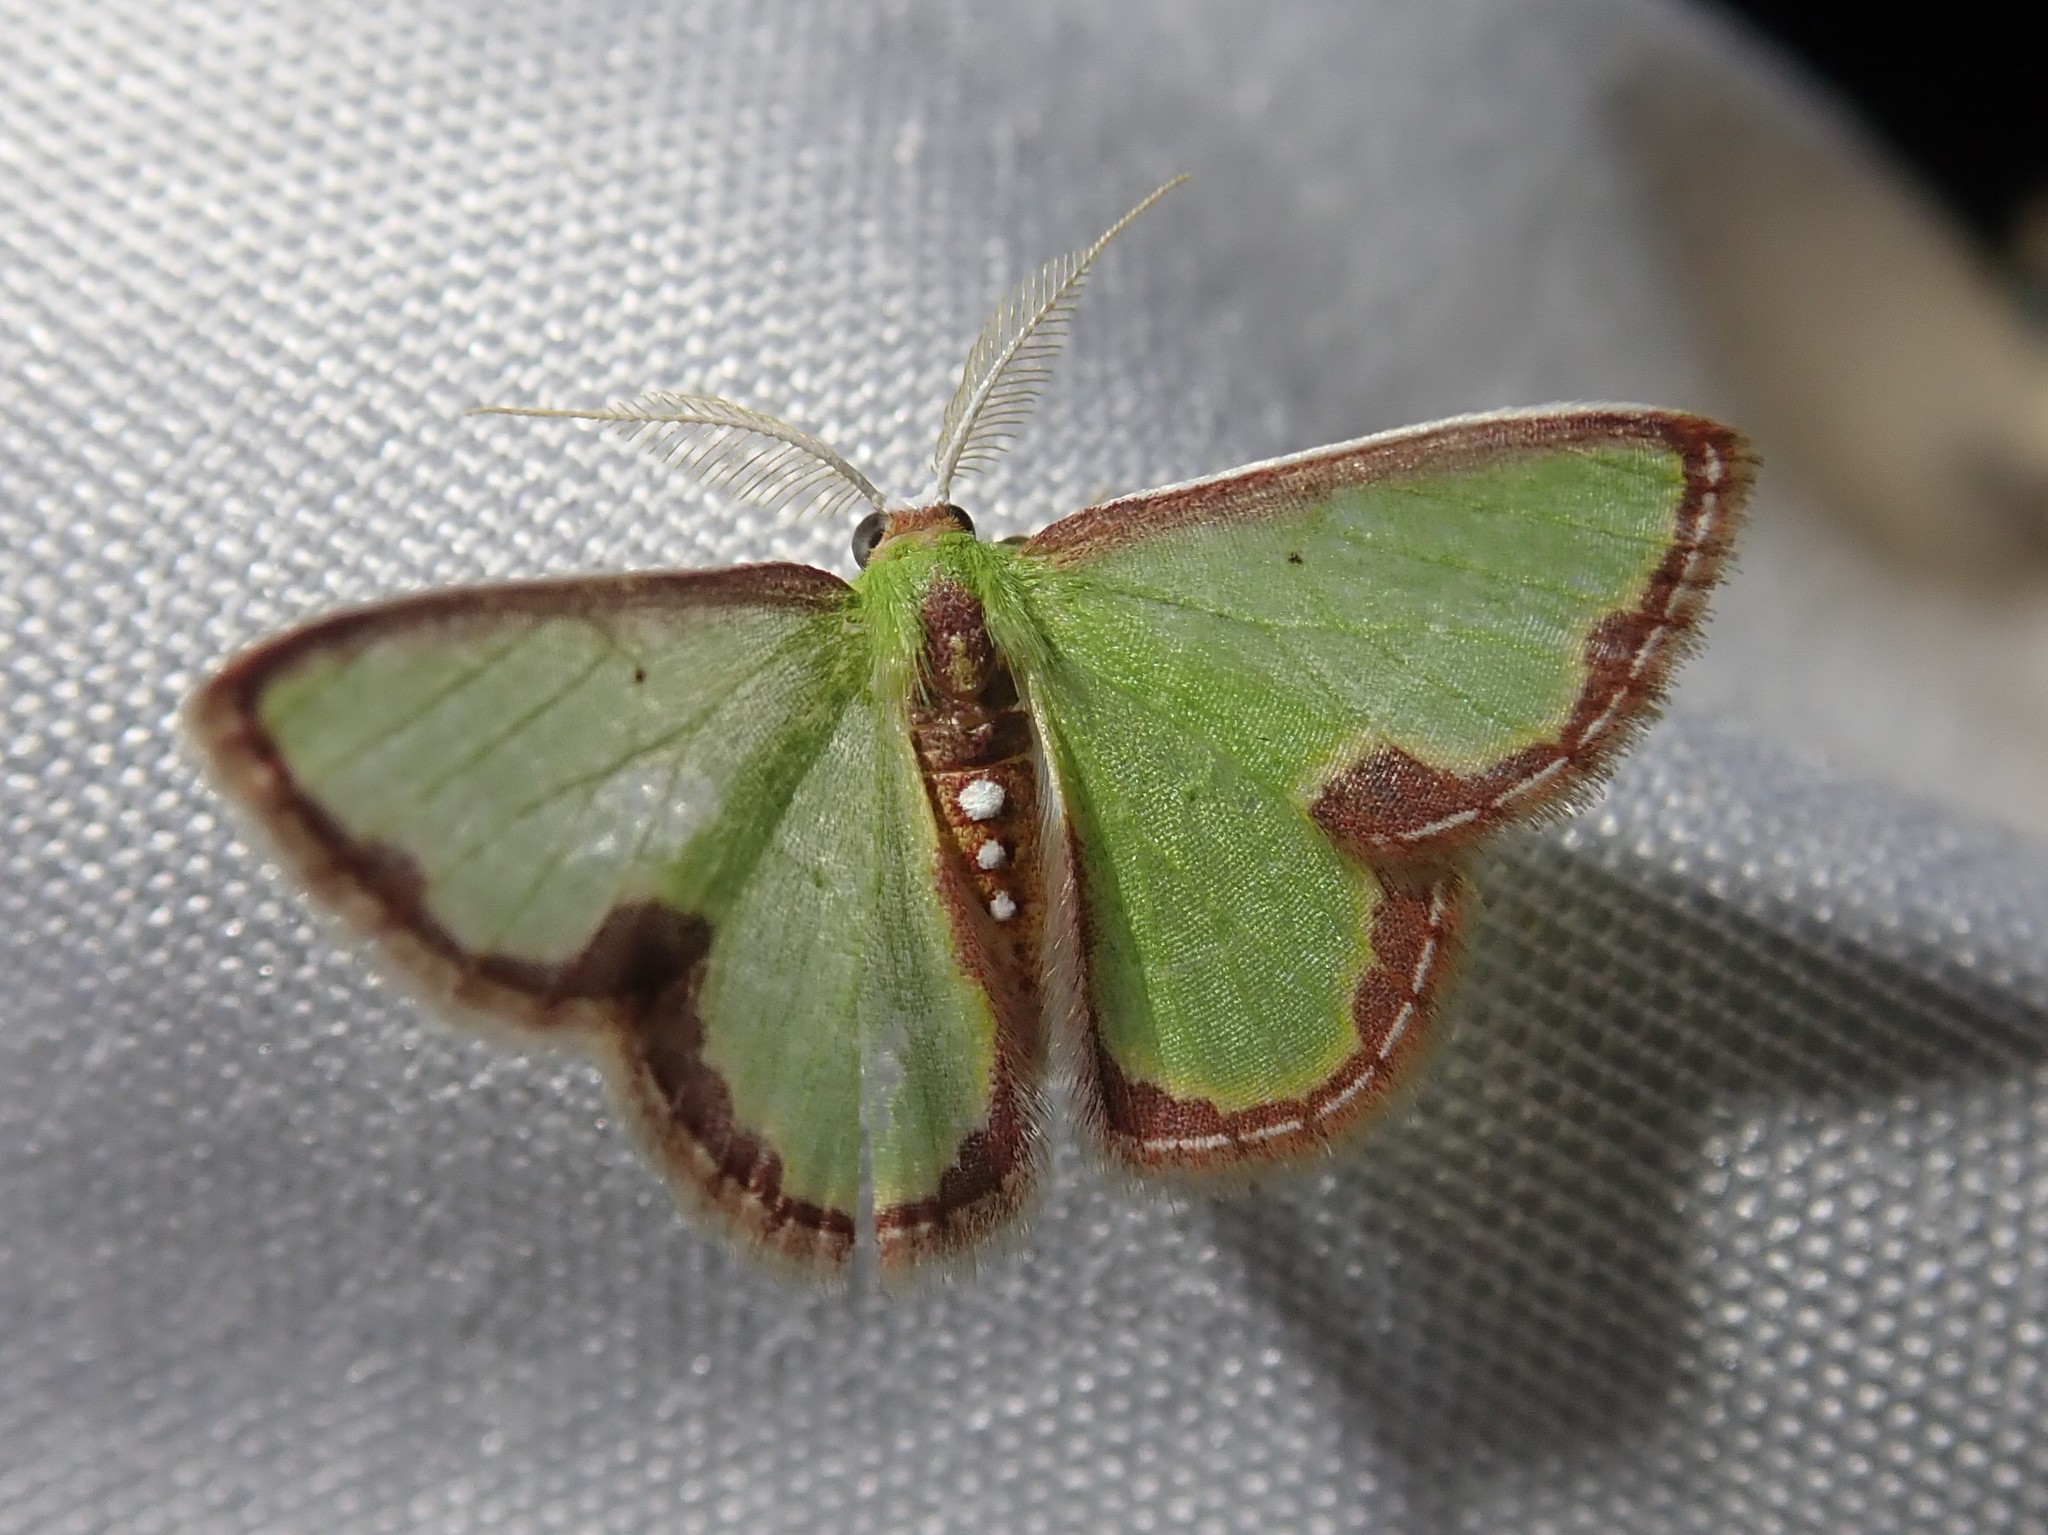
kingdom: Animalia
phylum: Arthropoda
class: Insecta
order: Lepidoptera
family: Geometridae
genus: Synchlora
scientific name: Synchlora expulsata
